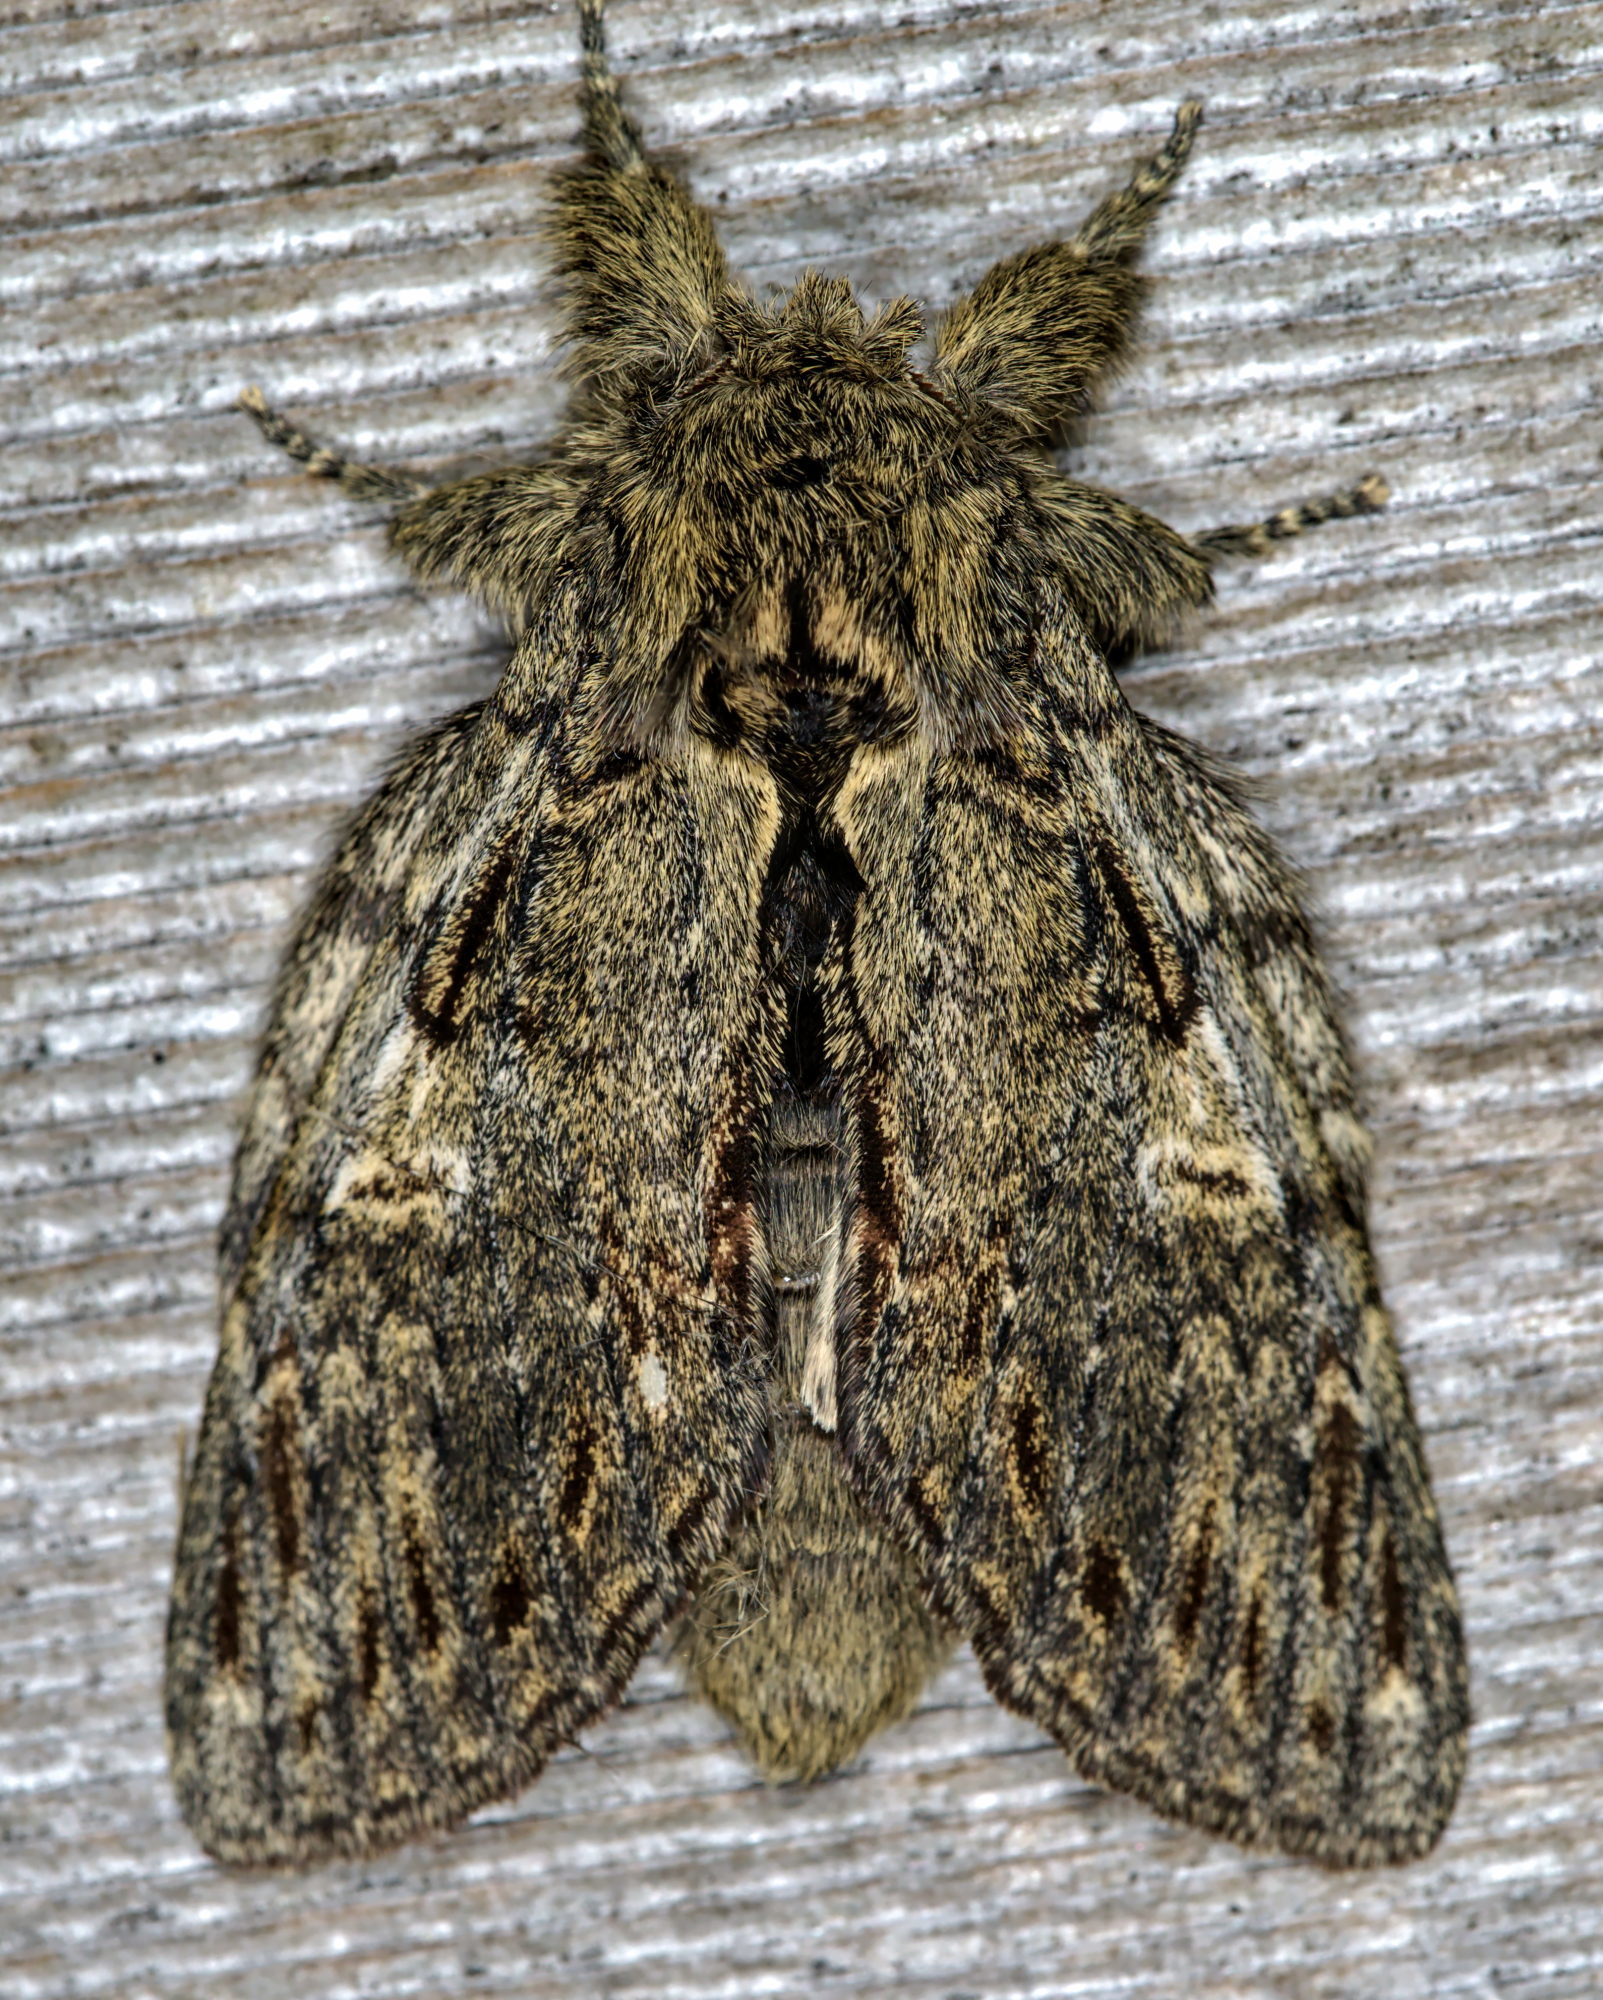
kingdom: Animalia
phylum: Arthropoda
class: Insecta
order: Lepidoptera
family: Notodontidae
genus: Peridea
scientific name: Peridea anceps
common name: Great prominent
